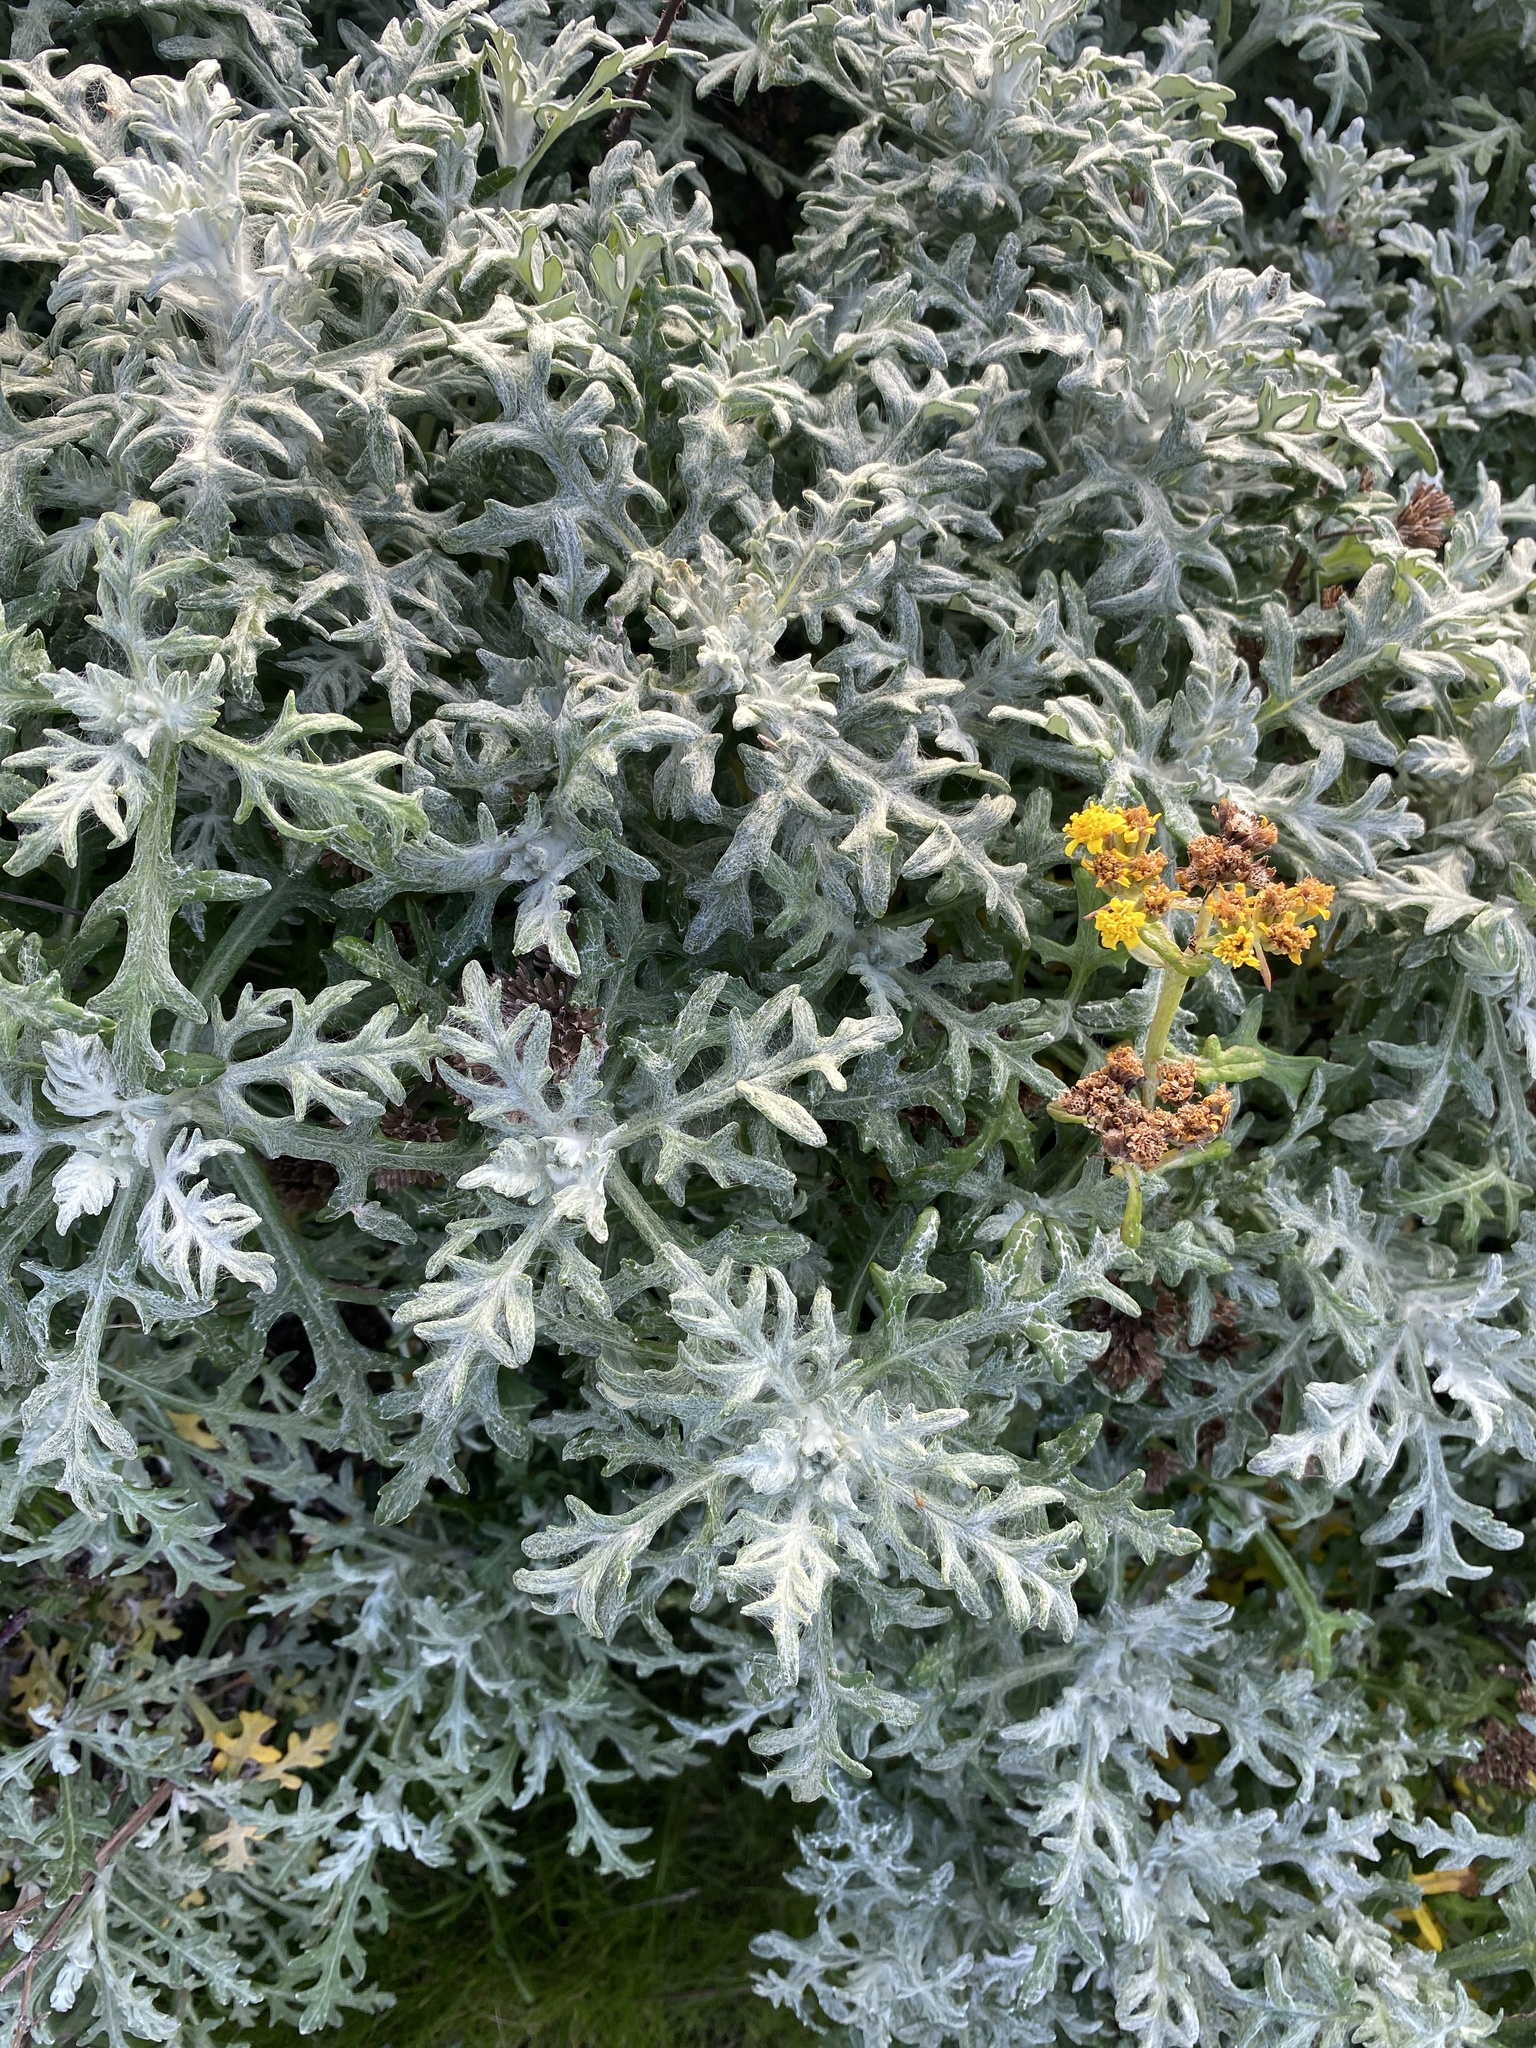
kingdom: Plantae
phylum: Tracheophyta
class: Magnoliopsida
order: Asterales
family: Asteraceae
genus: Eriophyllum
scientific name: Eriophyllum staechadifolium
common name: Lizardtail
